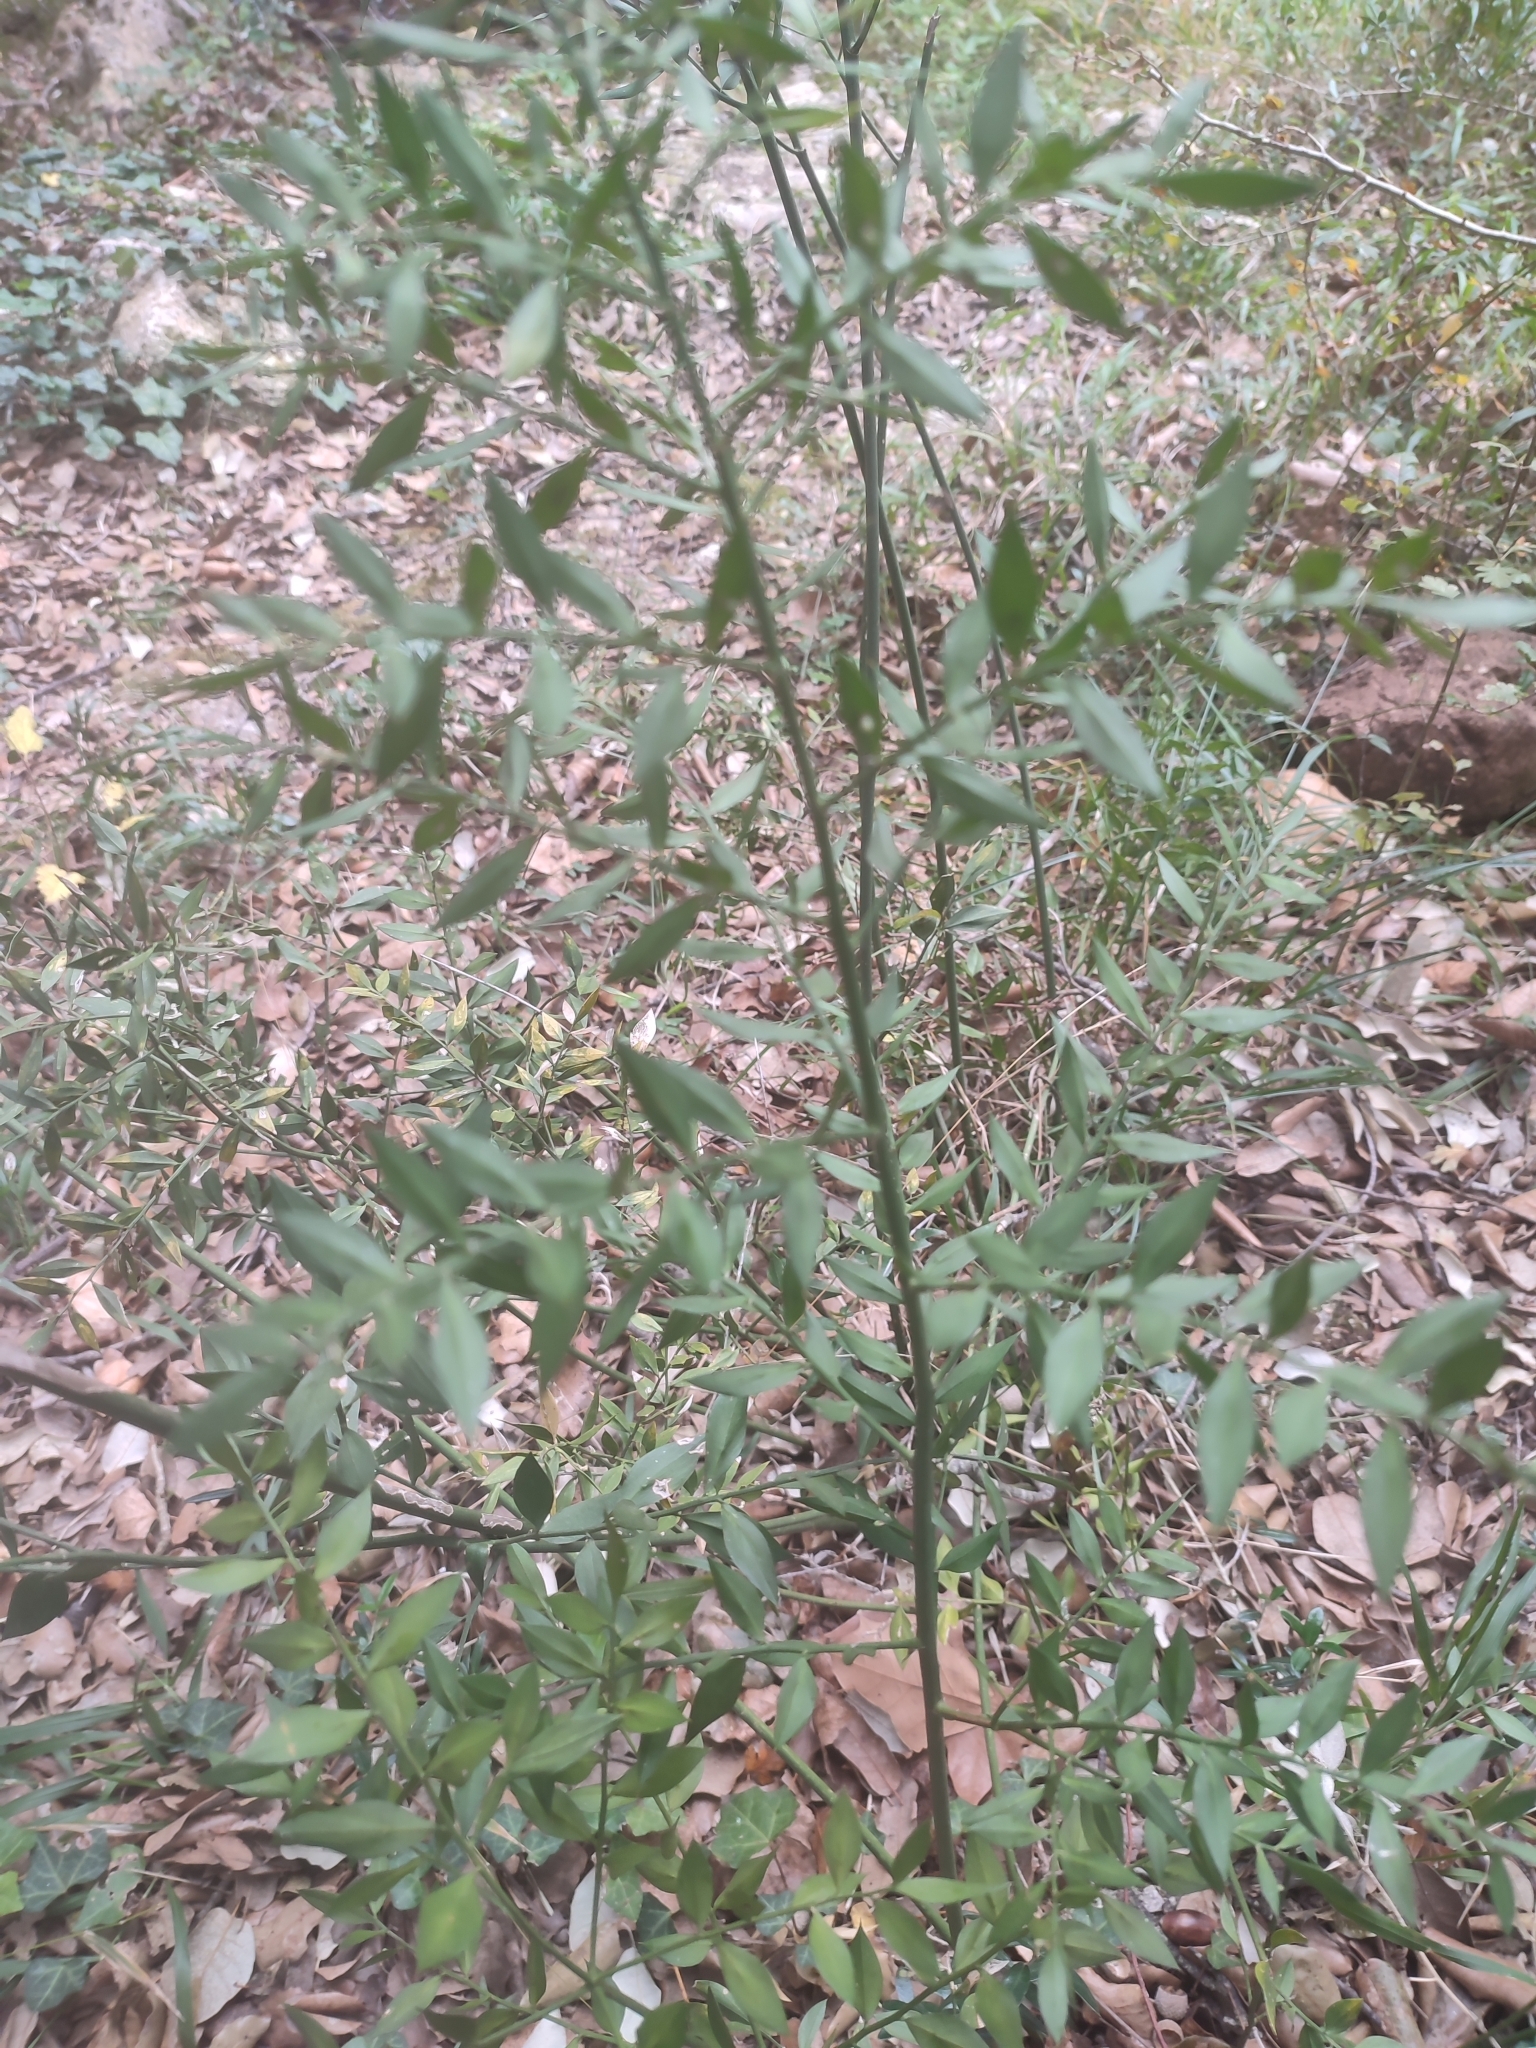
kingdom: Plantae
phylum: Tracheophyta
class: Liliopsida
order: Asparagales
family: Asparagaceae
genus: Ruscus
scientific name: Ruscus aculeatus
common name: Butcher's-broom
